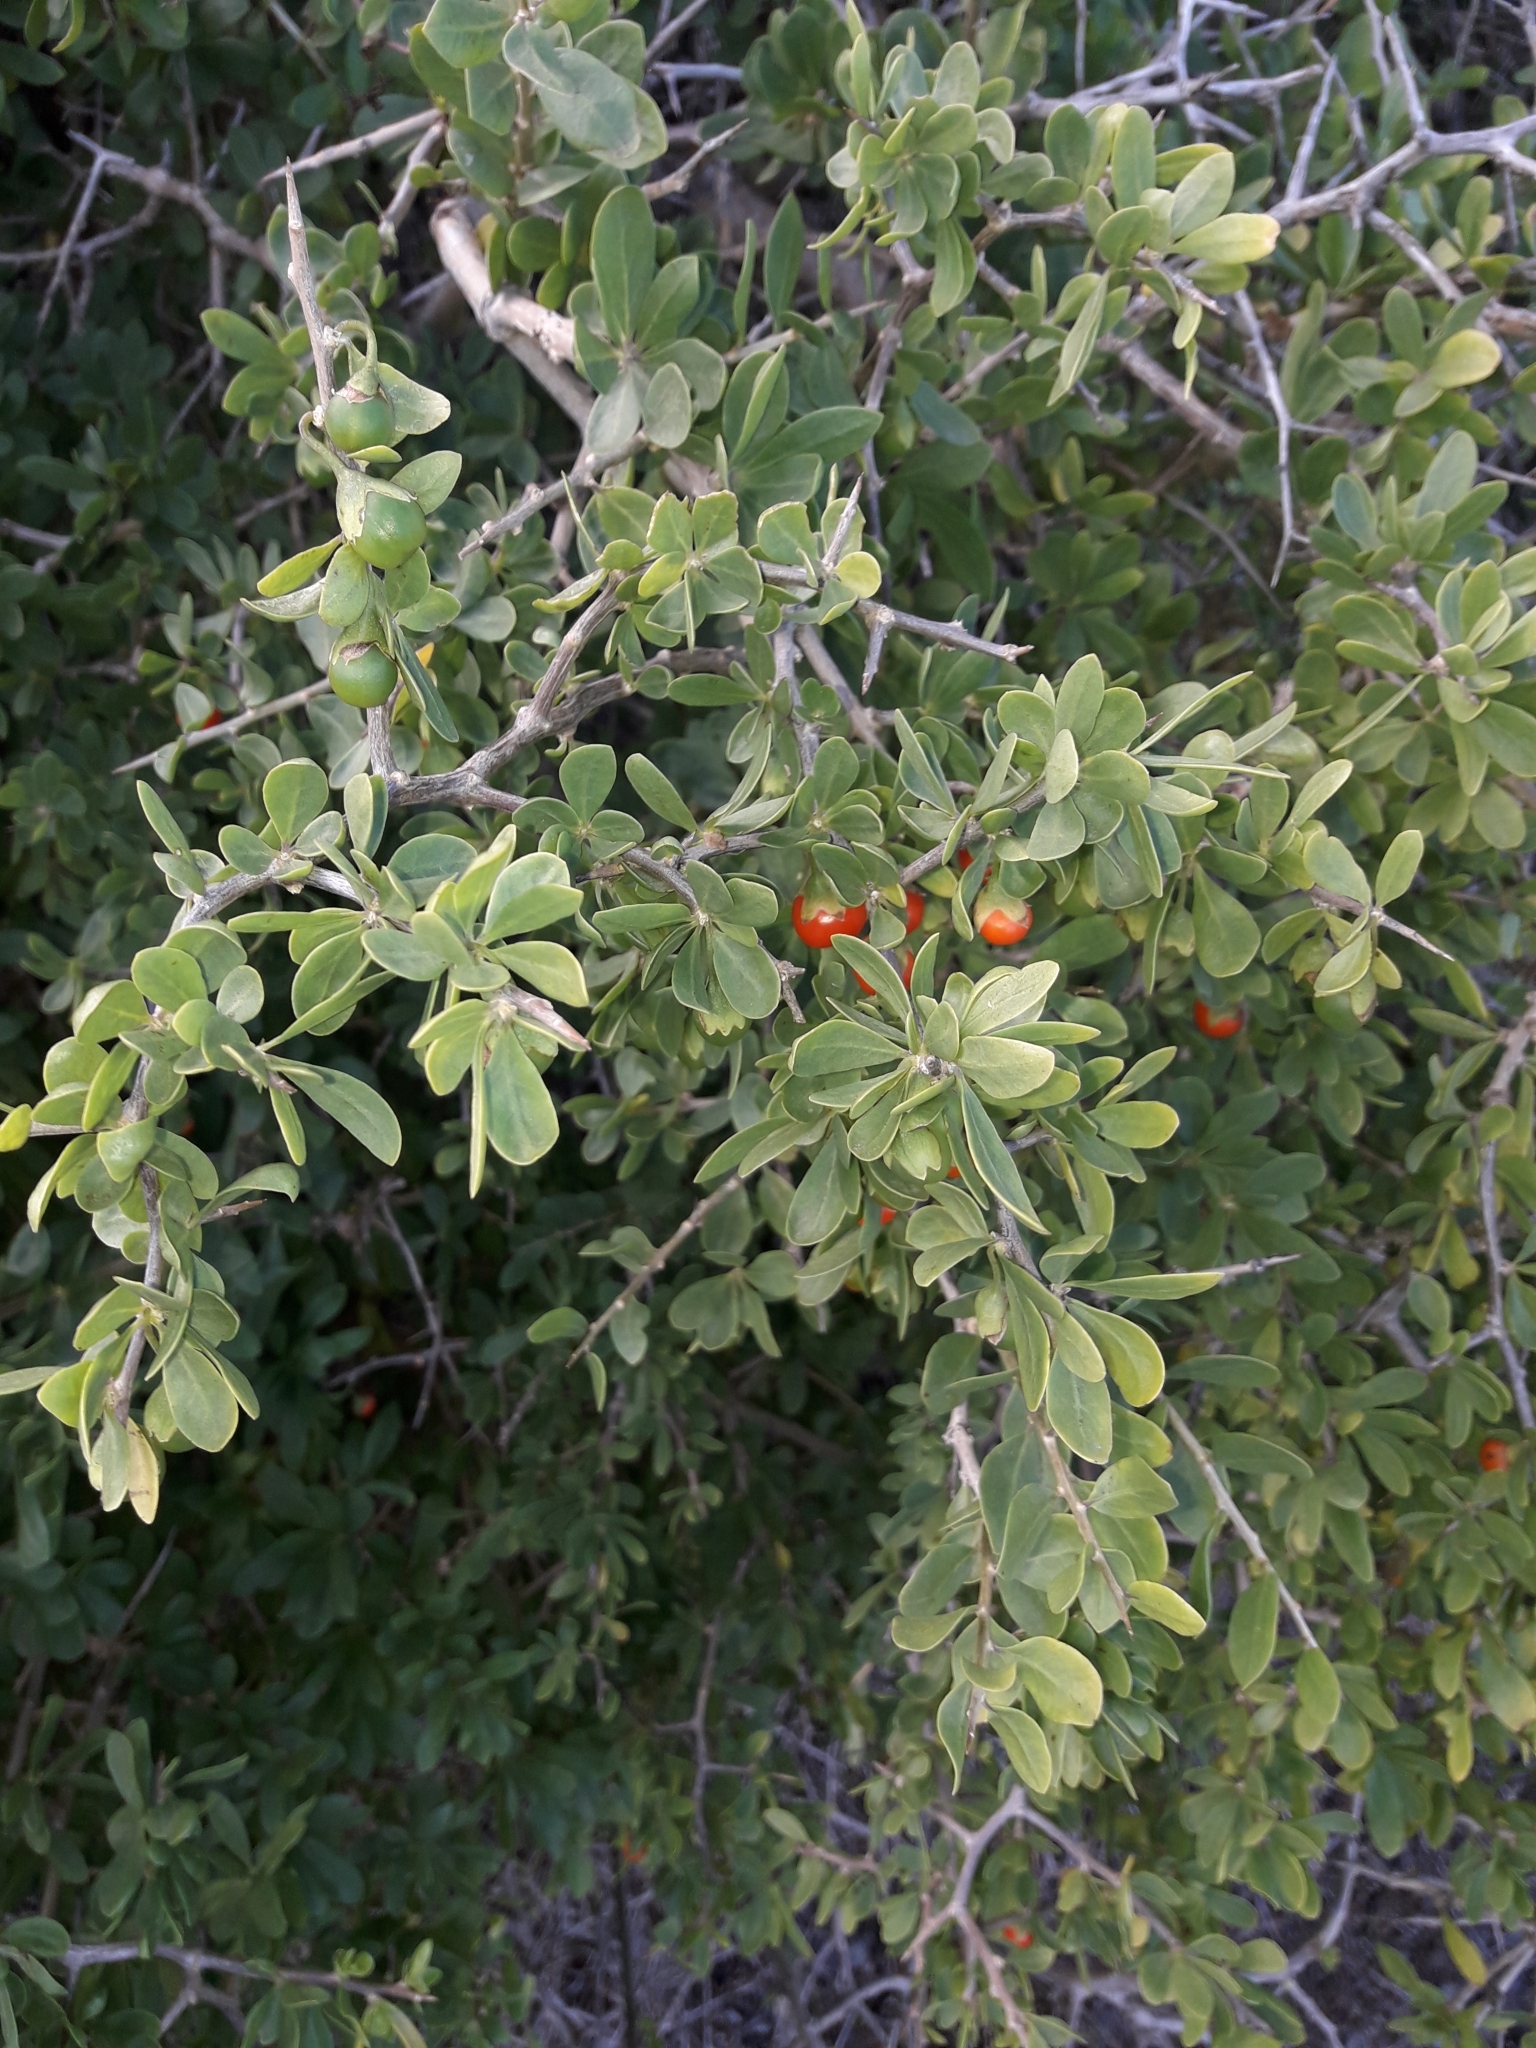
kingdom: Plantae
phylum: Tracheophyta
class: Magnoliopsida
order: Solanales
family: Solanaceae
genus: Lycium
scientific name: Lycium ferocissimum
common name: African boxthorn
